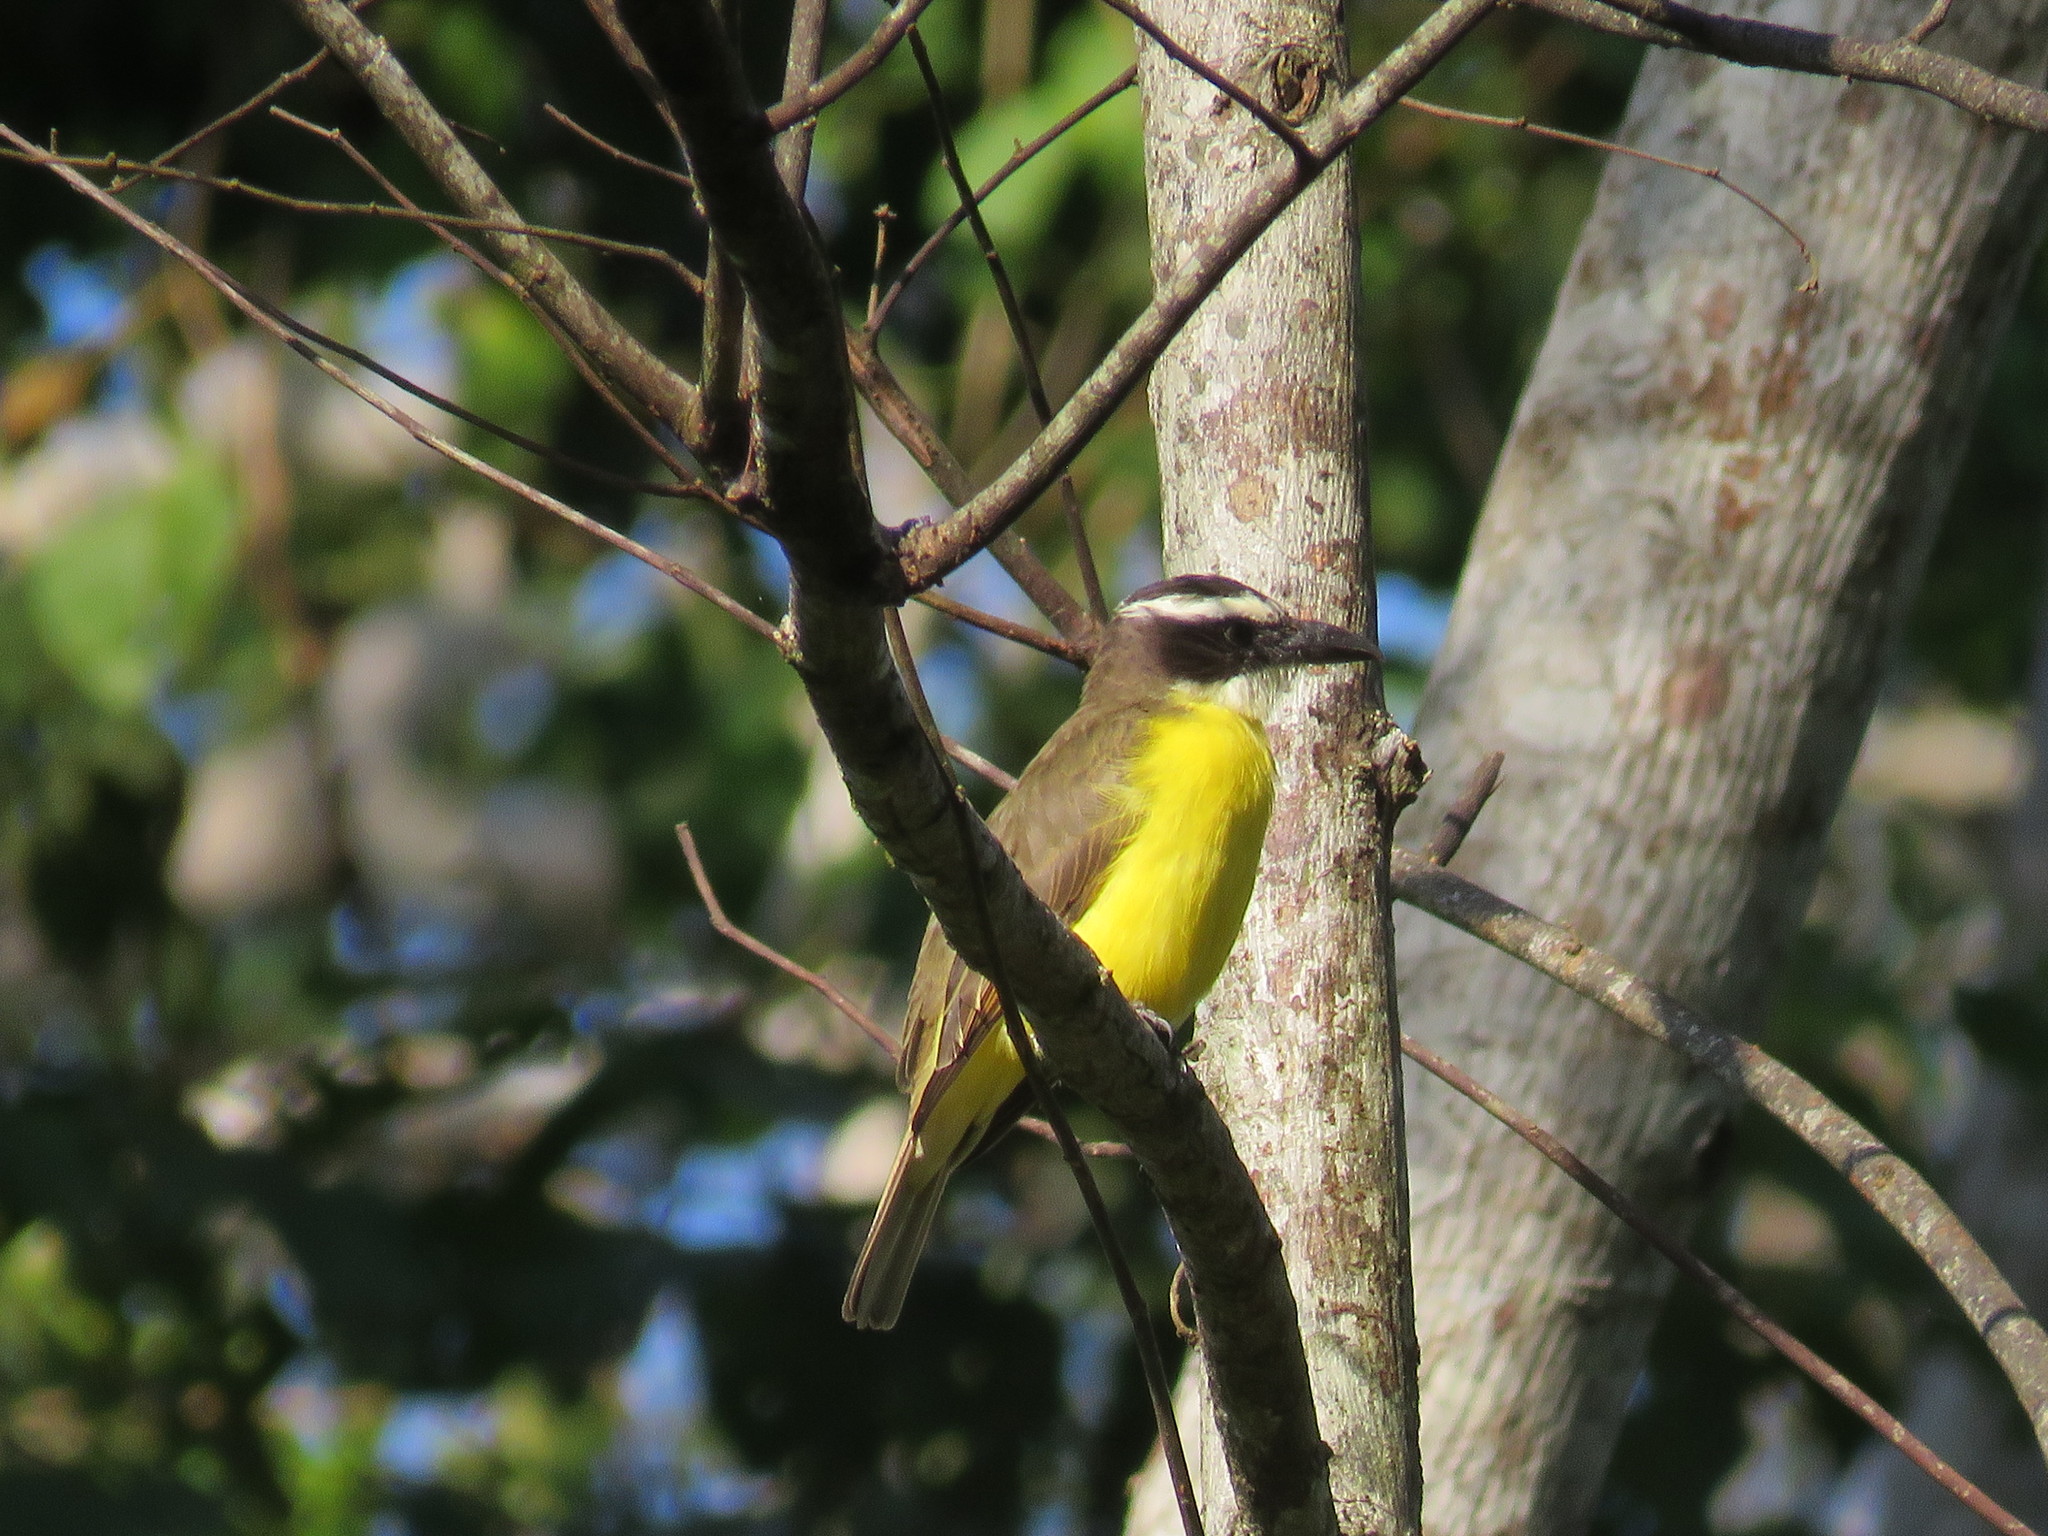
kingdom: Animalia
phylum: Chordata
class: Aves
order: Passeriformes
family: Tyrannidae
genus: Megarynchus
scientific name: Megarynchus pitangua
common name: Boat-billed flycatcher
